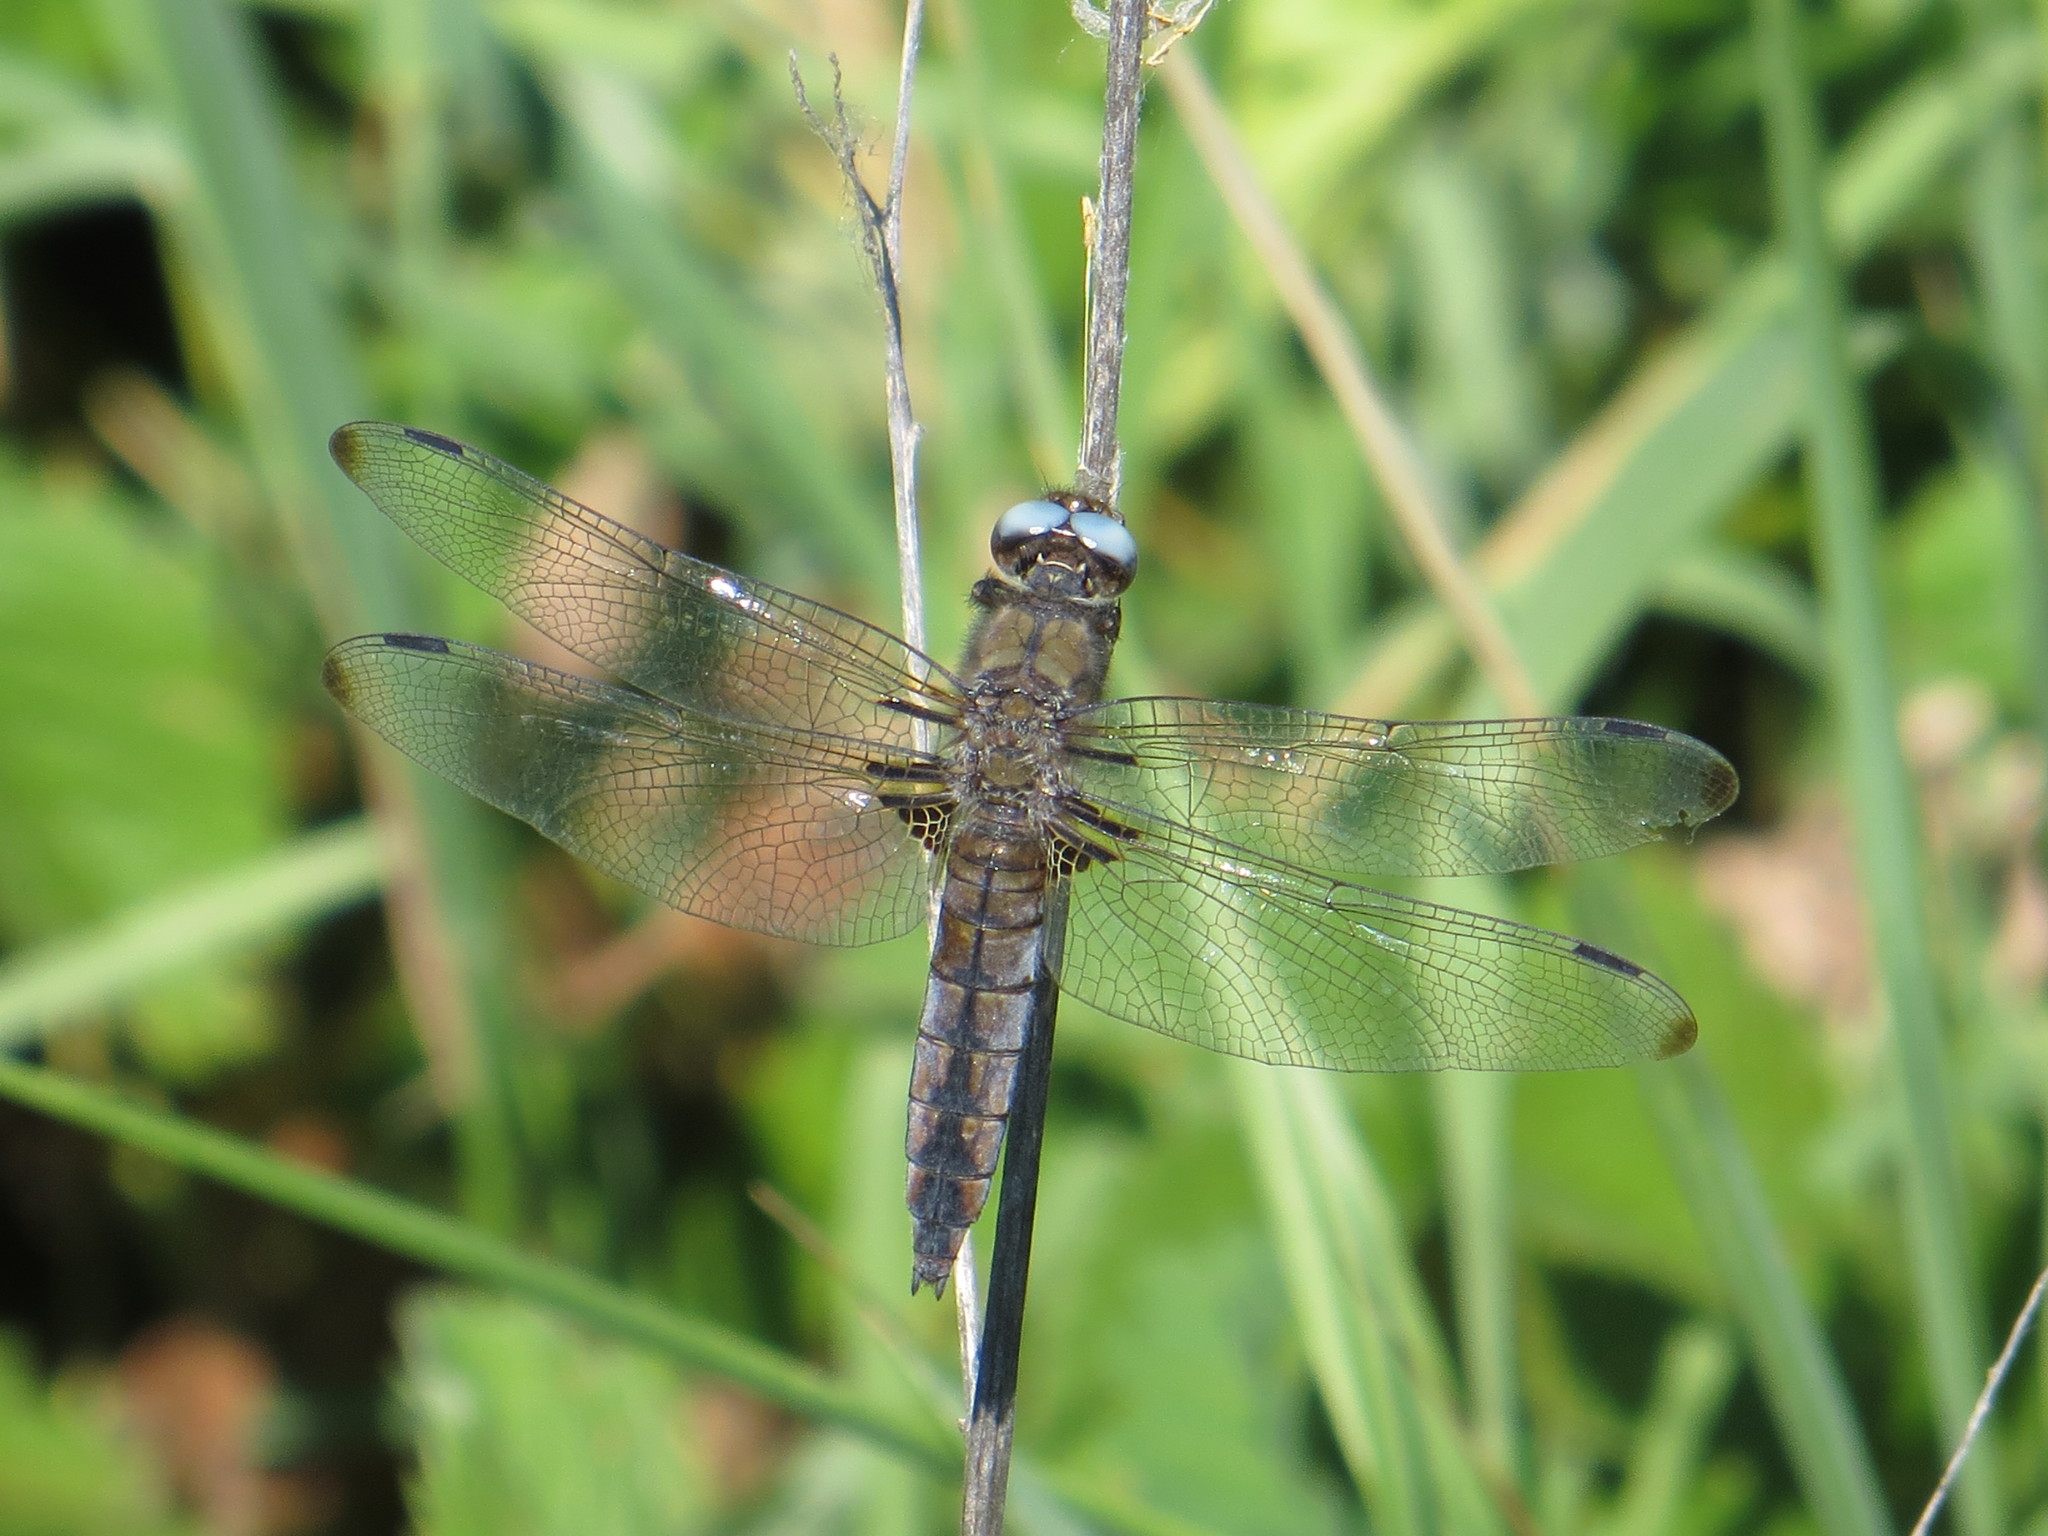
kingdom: Animalia
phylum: Arthropoda
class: Insecta
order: Odonata
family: Libellulidae
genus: Libellula
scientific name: Libellula fulva
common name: Blue chaser
